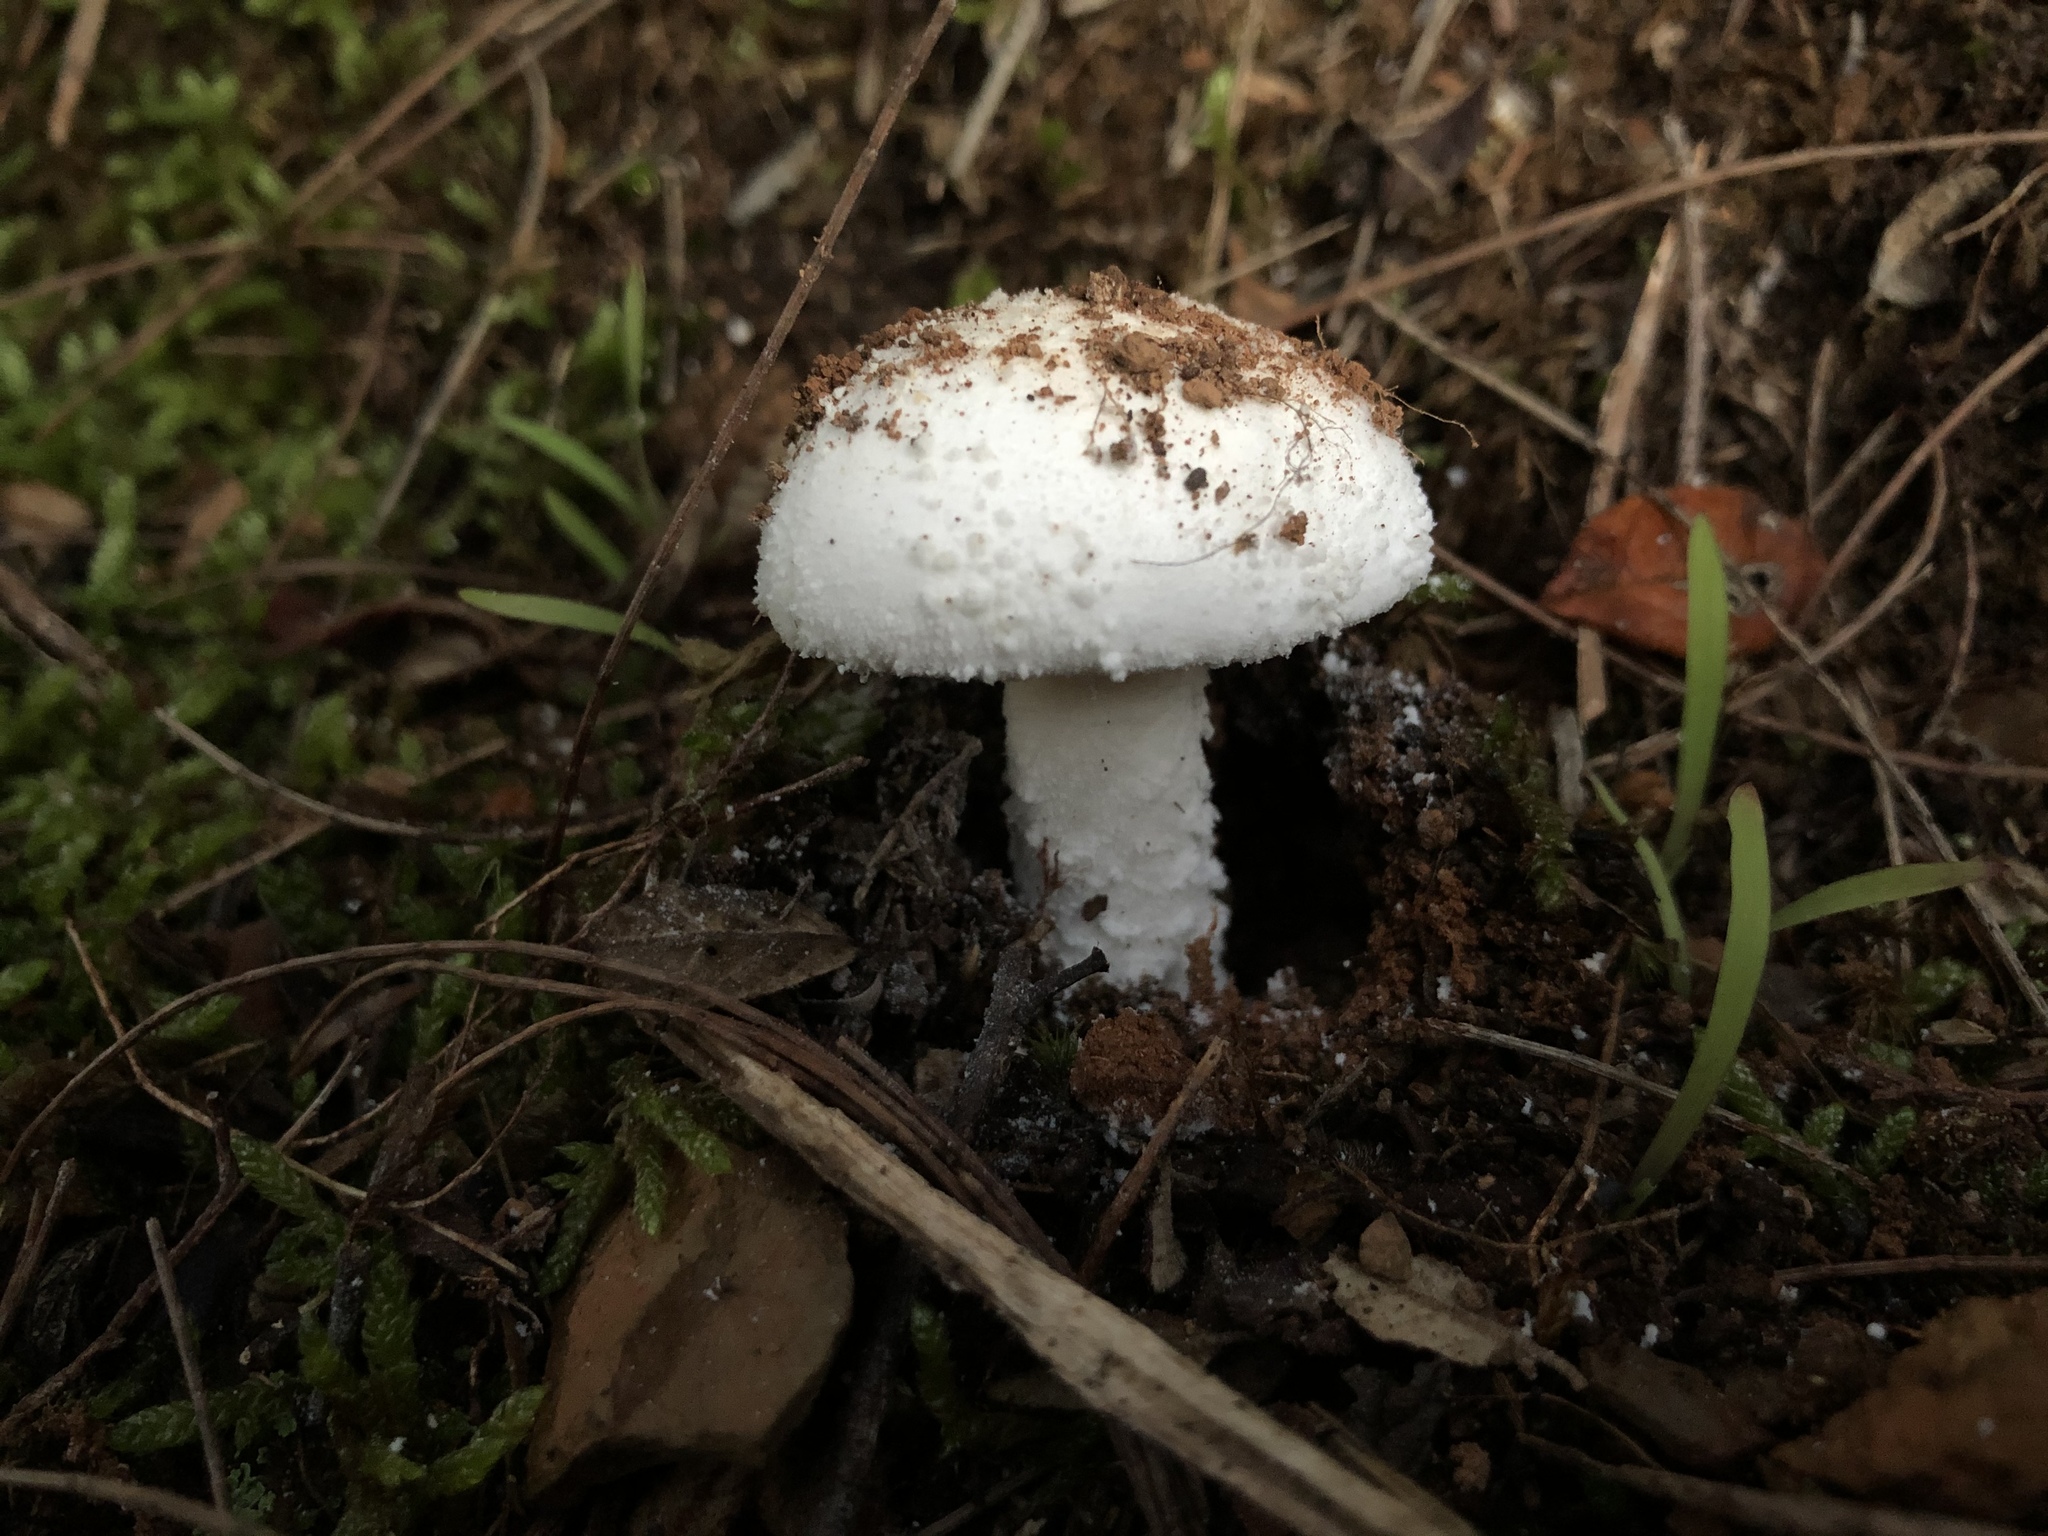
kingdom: Fungi
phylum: Basidiomycota
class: Agaricomycetes
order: Agaricales
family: Amanitaceae
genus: Amanita
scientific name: Amanita farinacea
